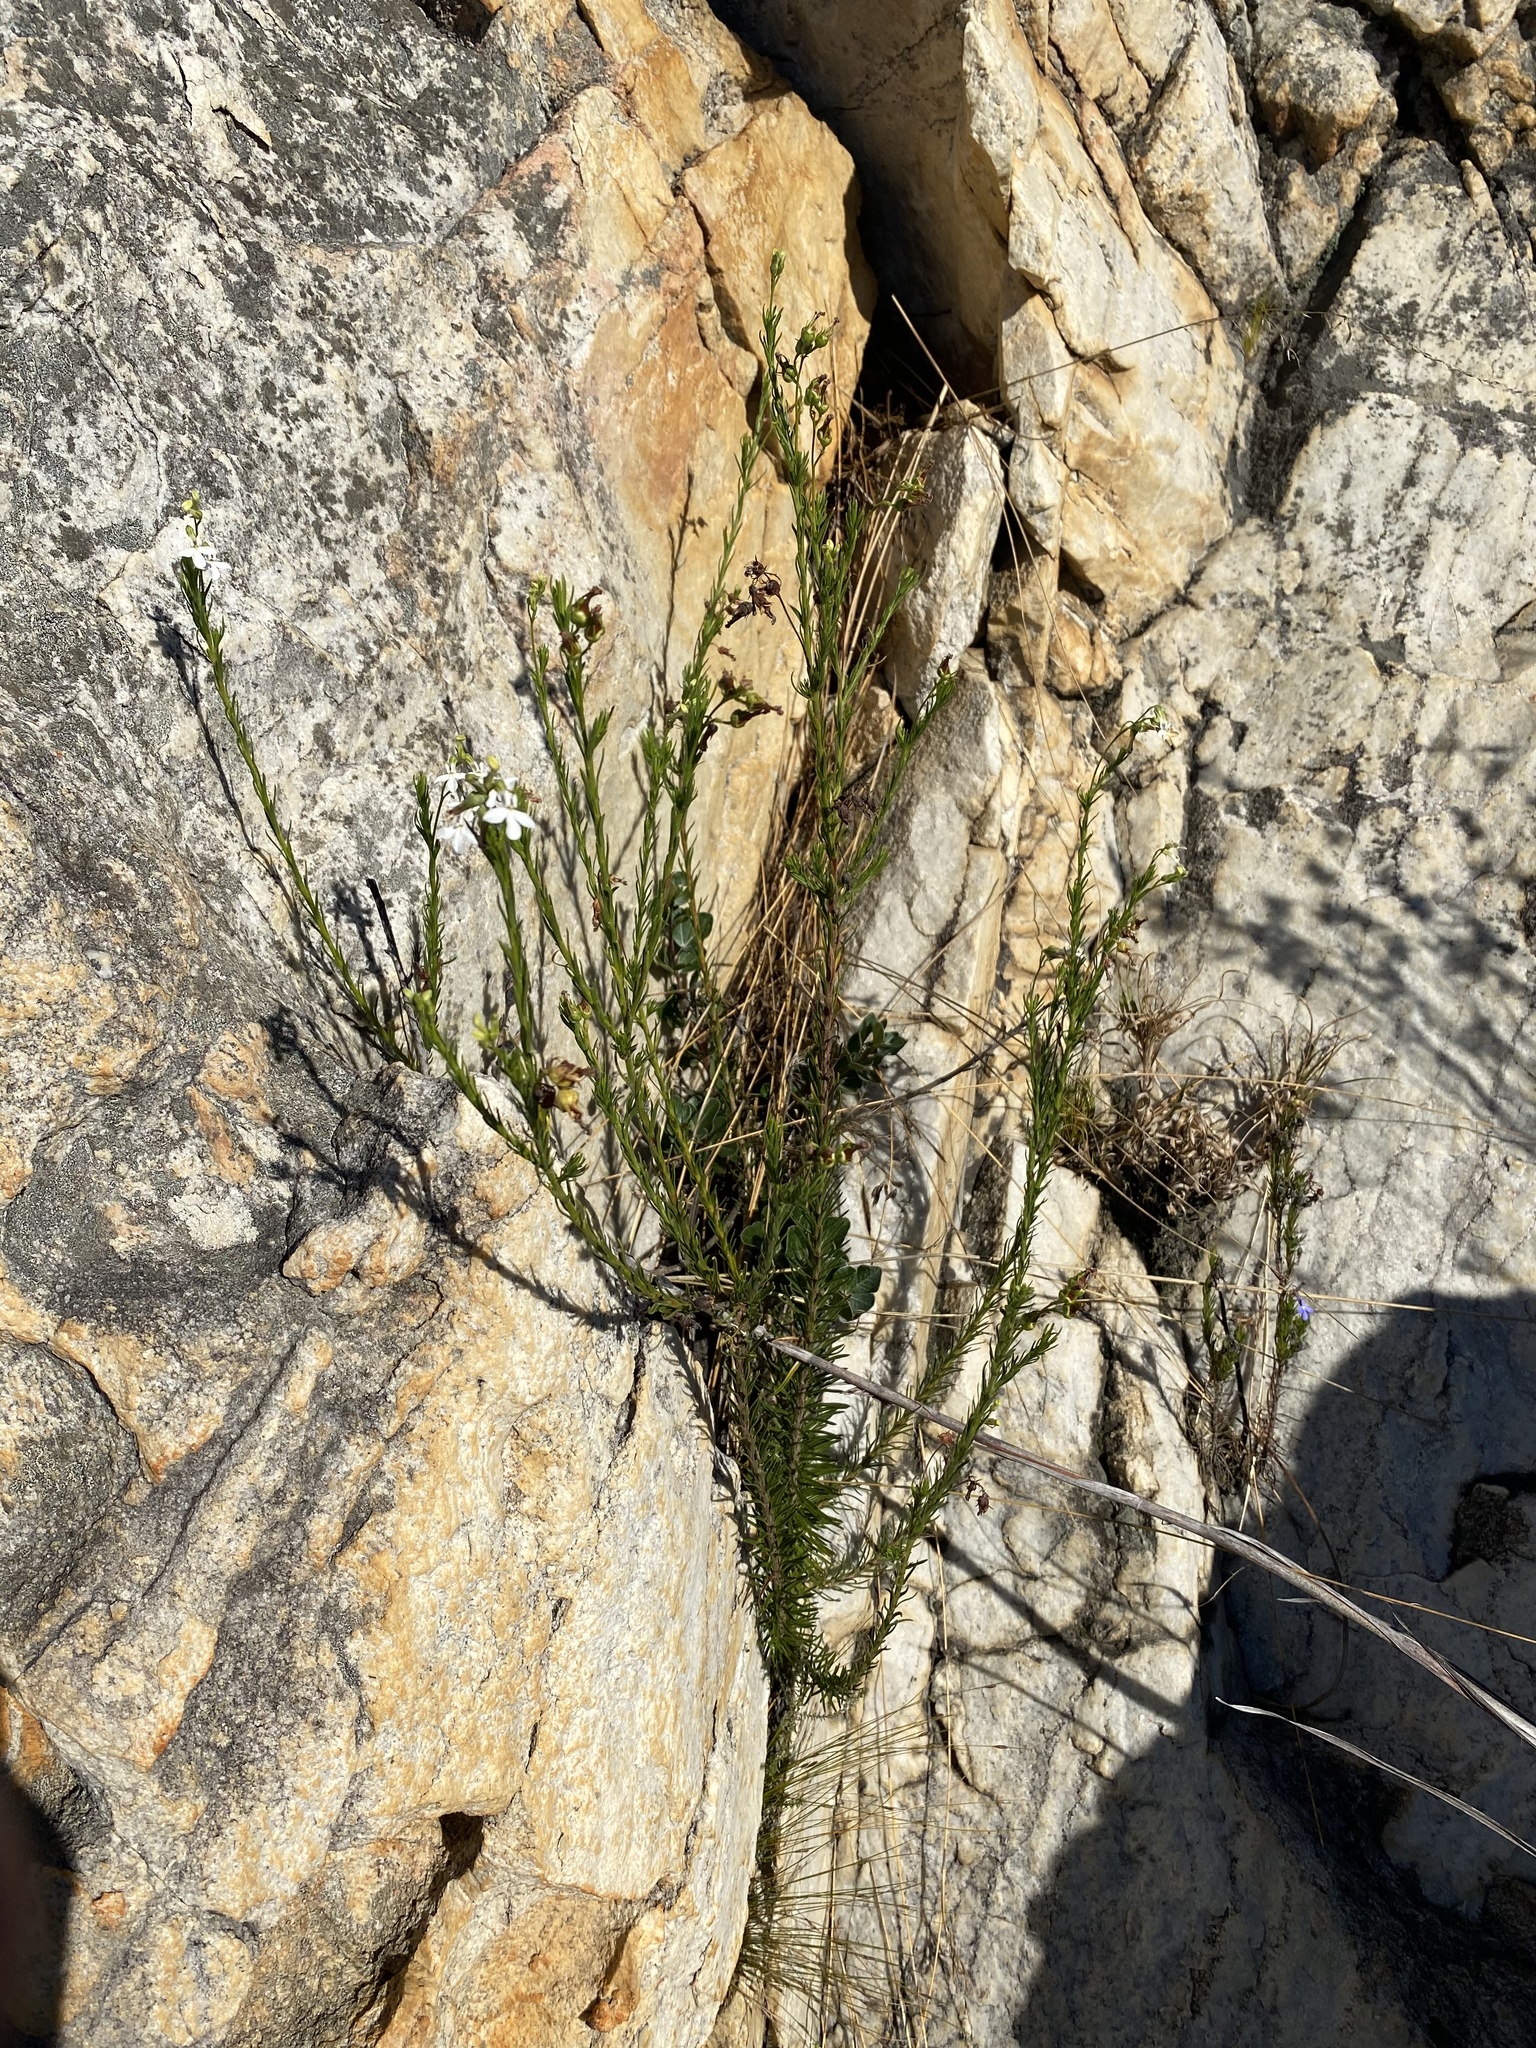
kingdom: Plantae
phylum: Tracheophyta
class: Magnoliopsida
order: Asterales
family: Campanulaceae
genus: Lobelia
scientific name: Lobelia pinifolia
